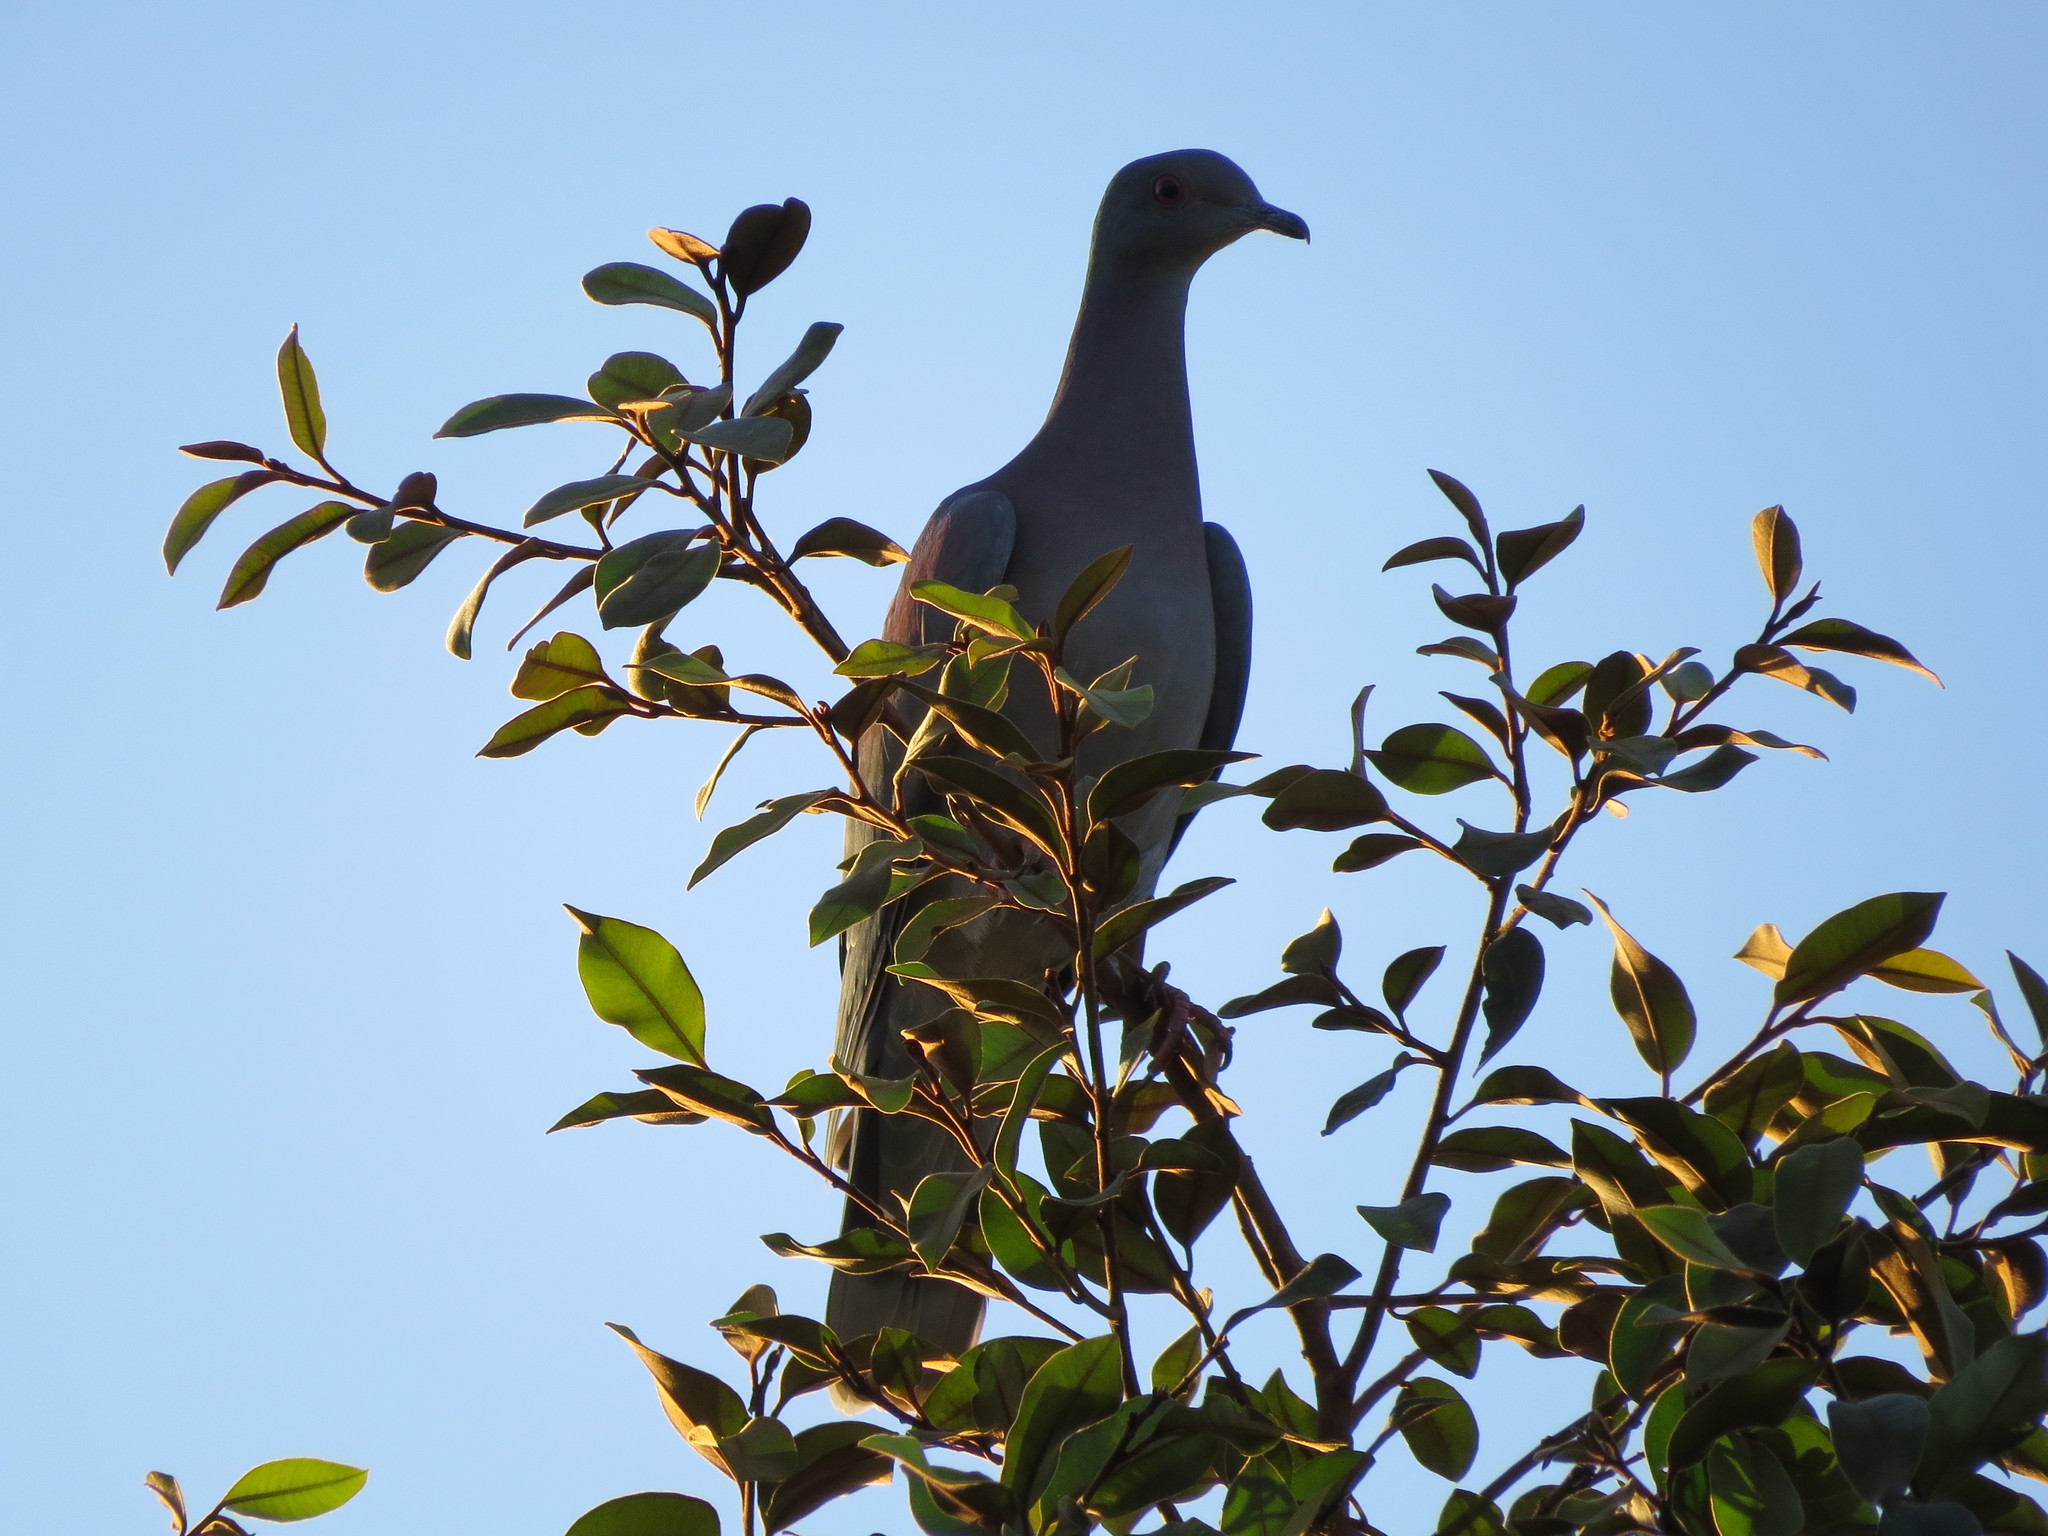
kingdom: Animalia
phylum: Chordata
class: Aves
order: Columbiformes
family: Columbidae
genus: Patagioenas
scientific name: Patagioenas cayennensis
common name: Pale-vented pigeon
